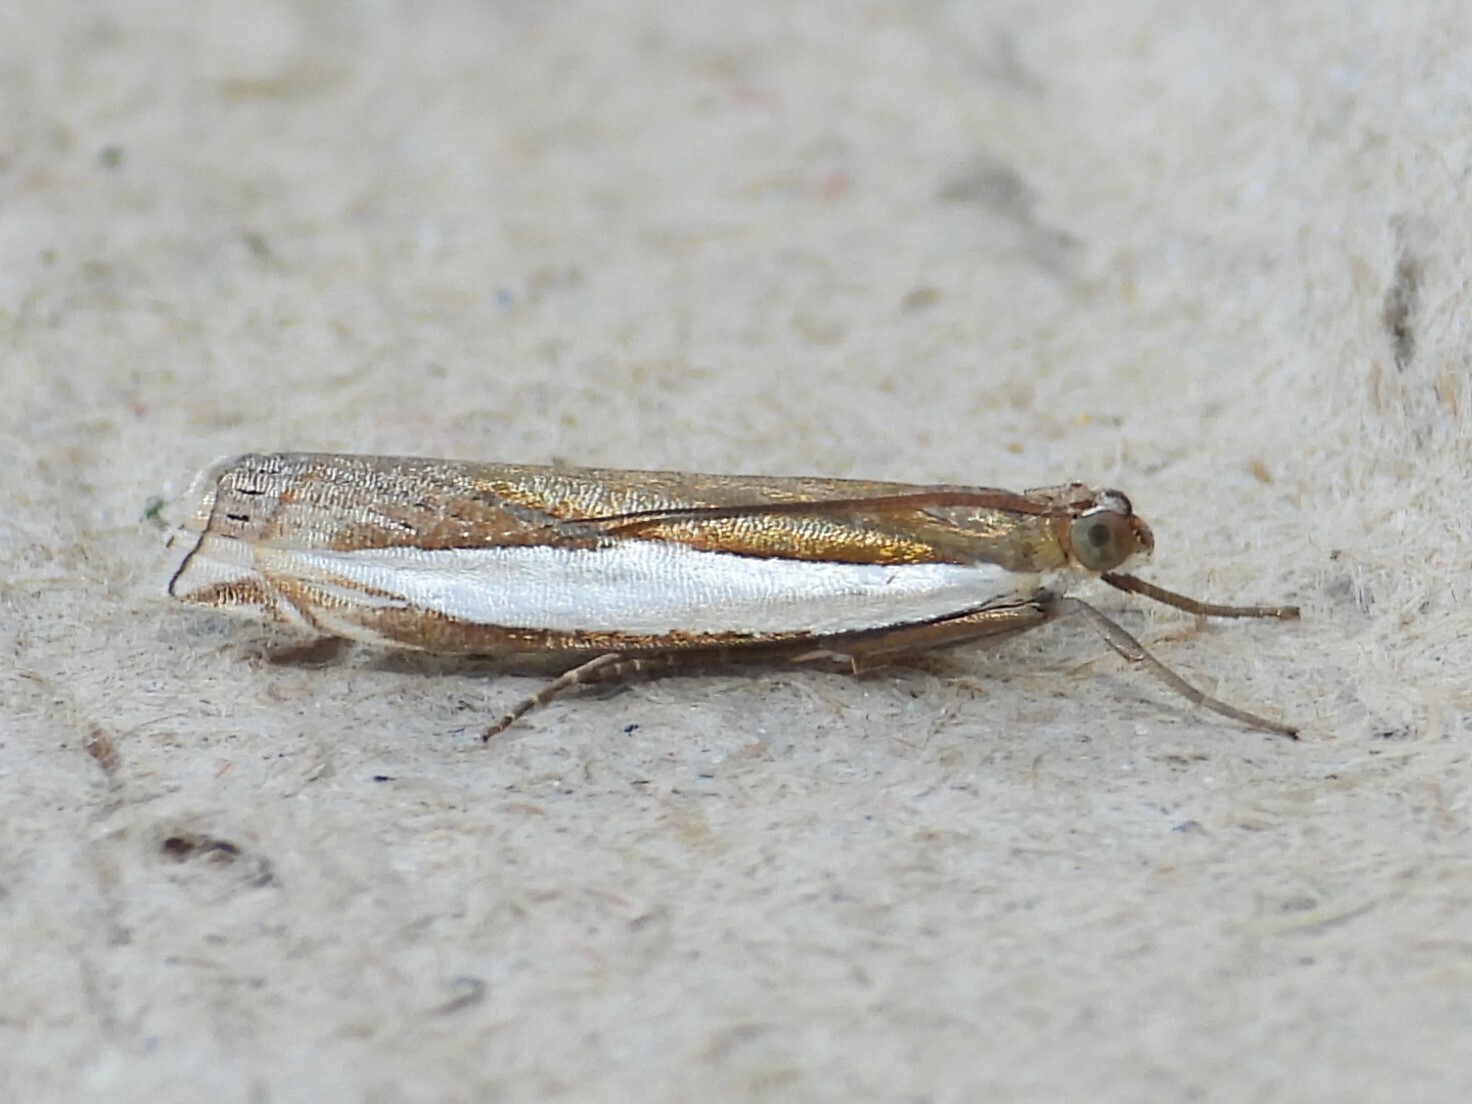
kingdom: Animalia
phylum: Arthropoda
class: Insecta
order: Lepidoptera
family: Crambidae
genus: Crambus
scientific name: Crambus leachellus
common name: Leach's grass-veneer
